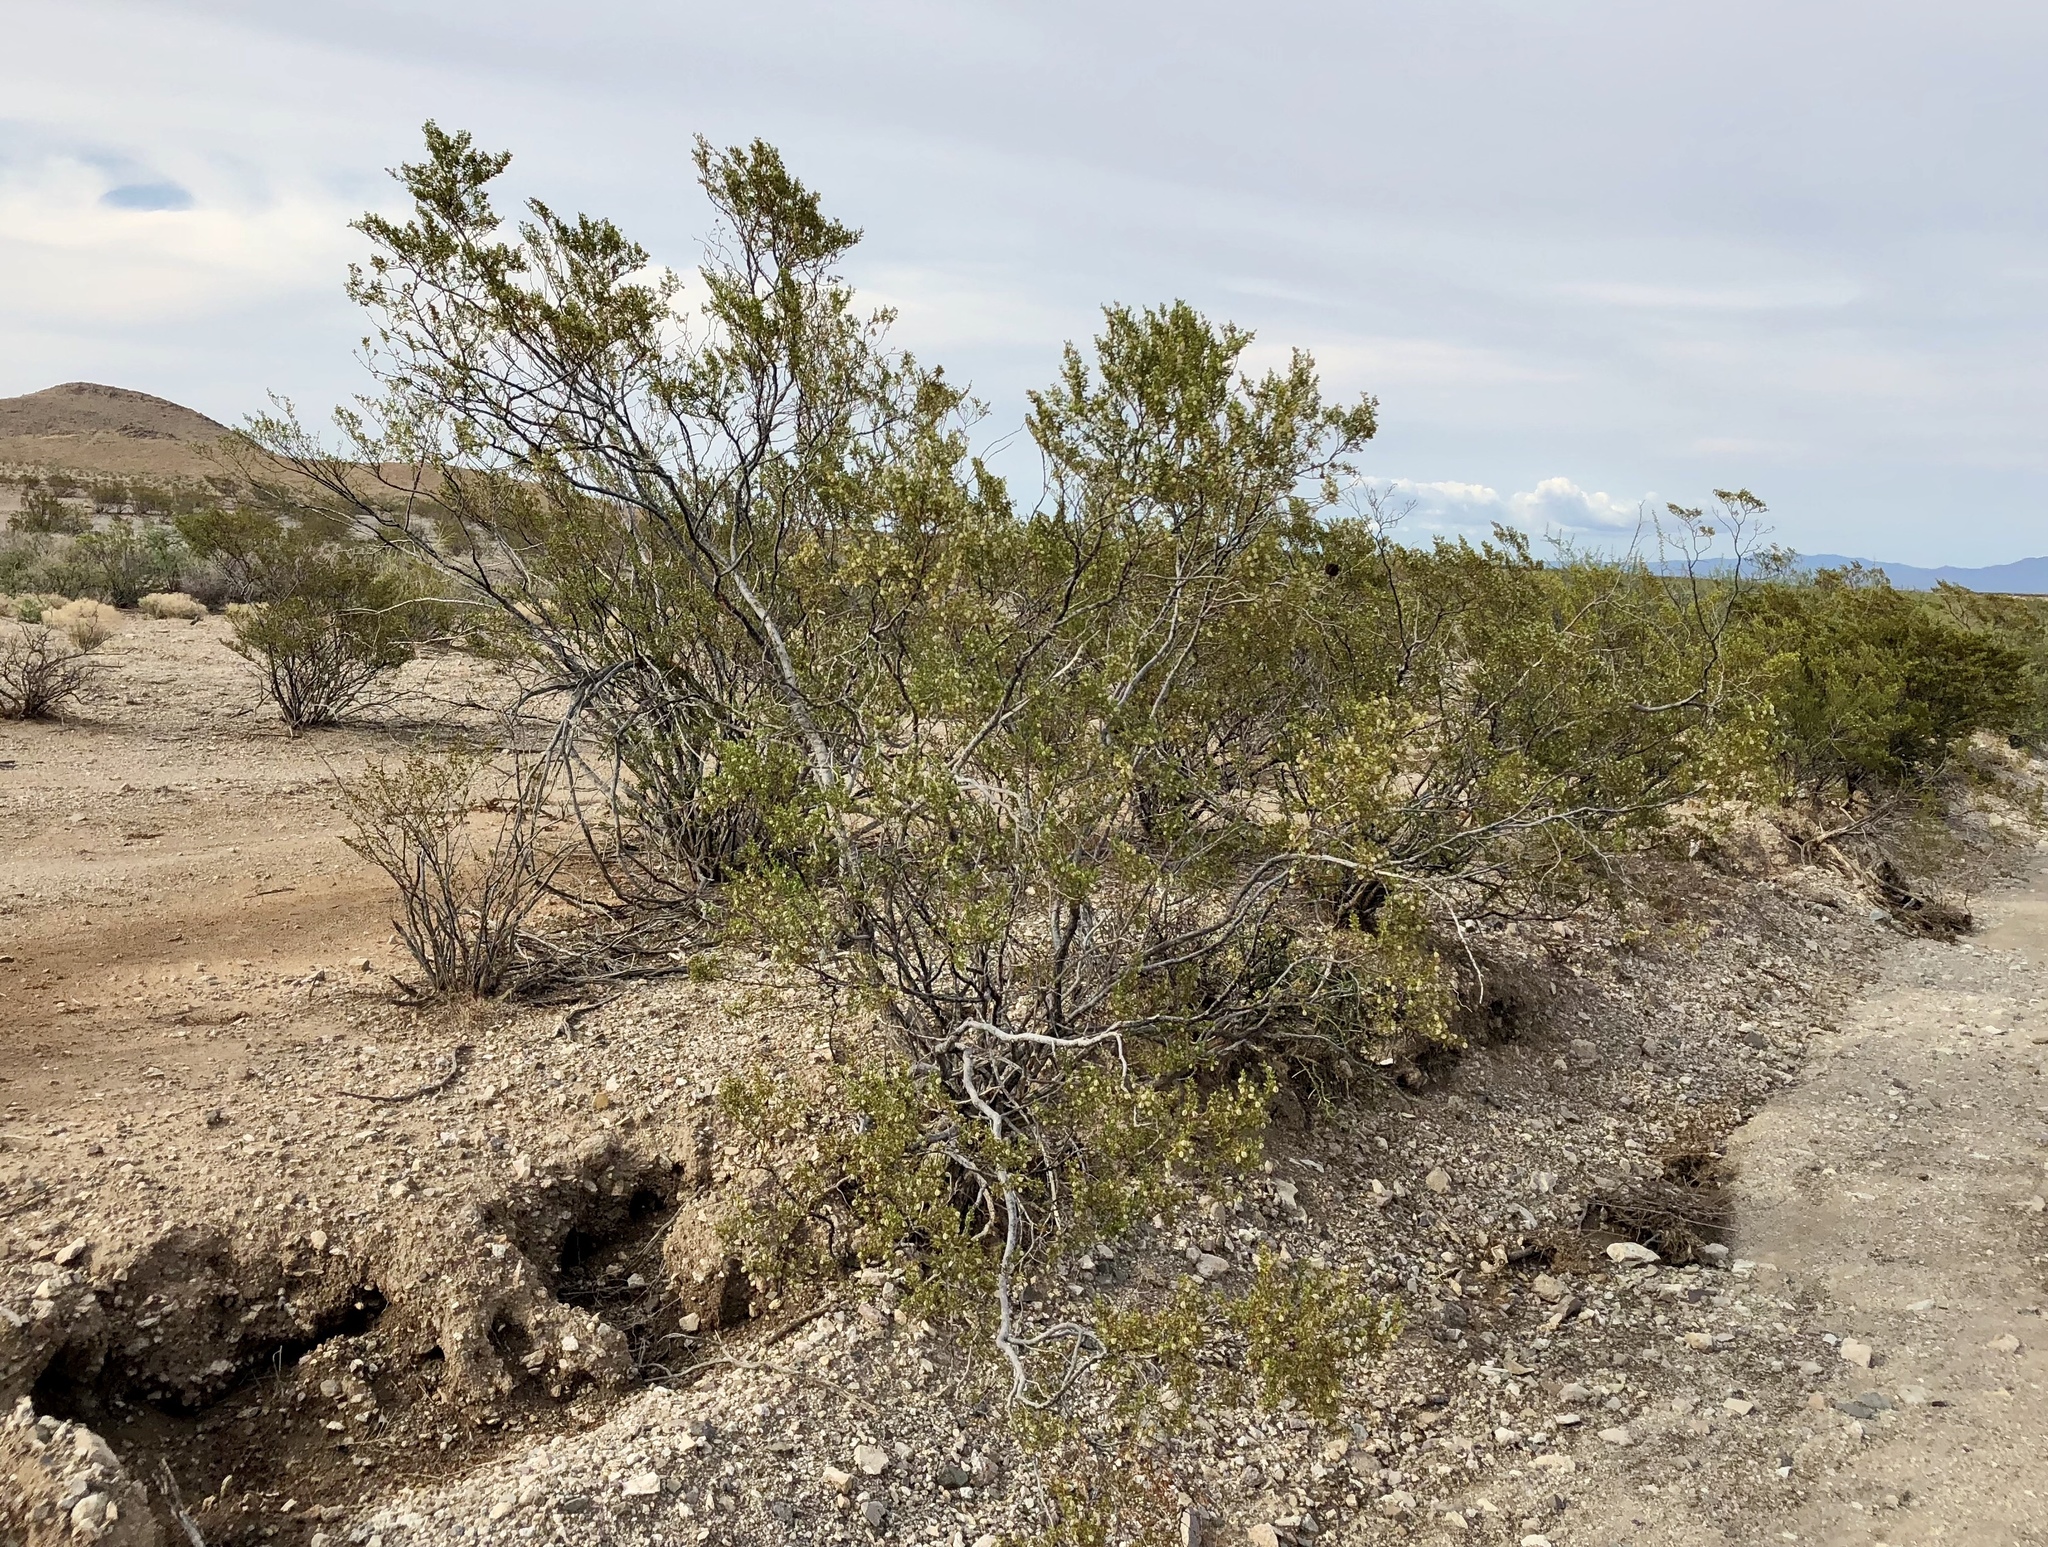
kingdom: Plantae
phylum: Tracheophyta
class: Magnoliopsida
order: Zygophyllales
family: Zygophyllaceae
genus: Larrea
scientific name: Larrea tridentata
